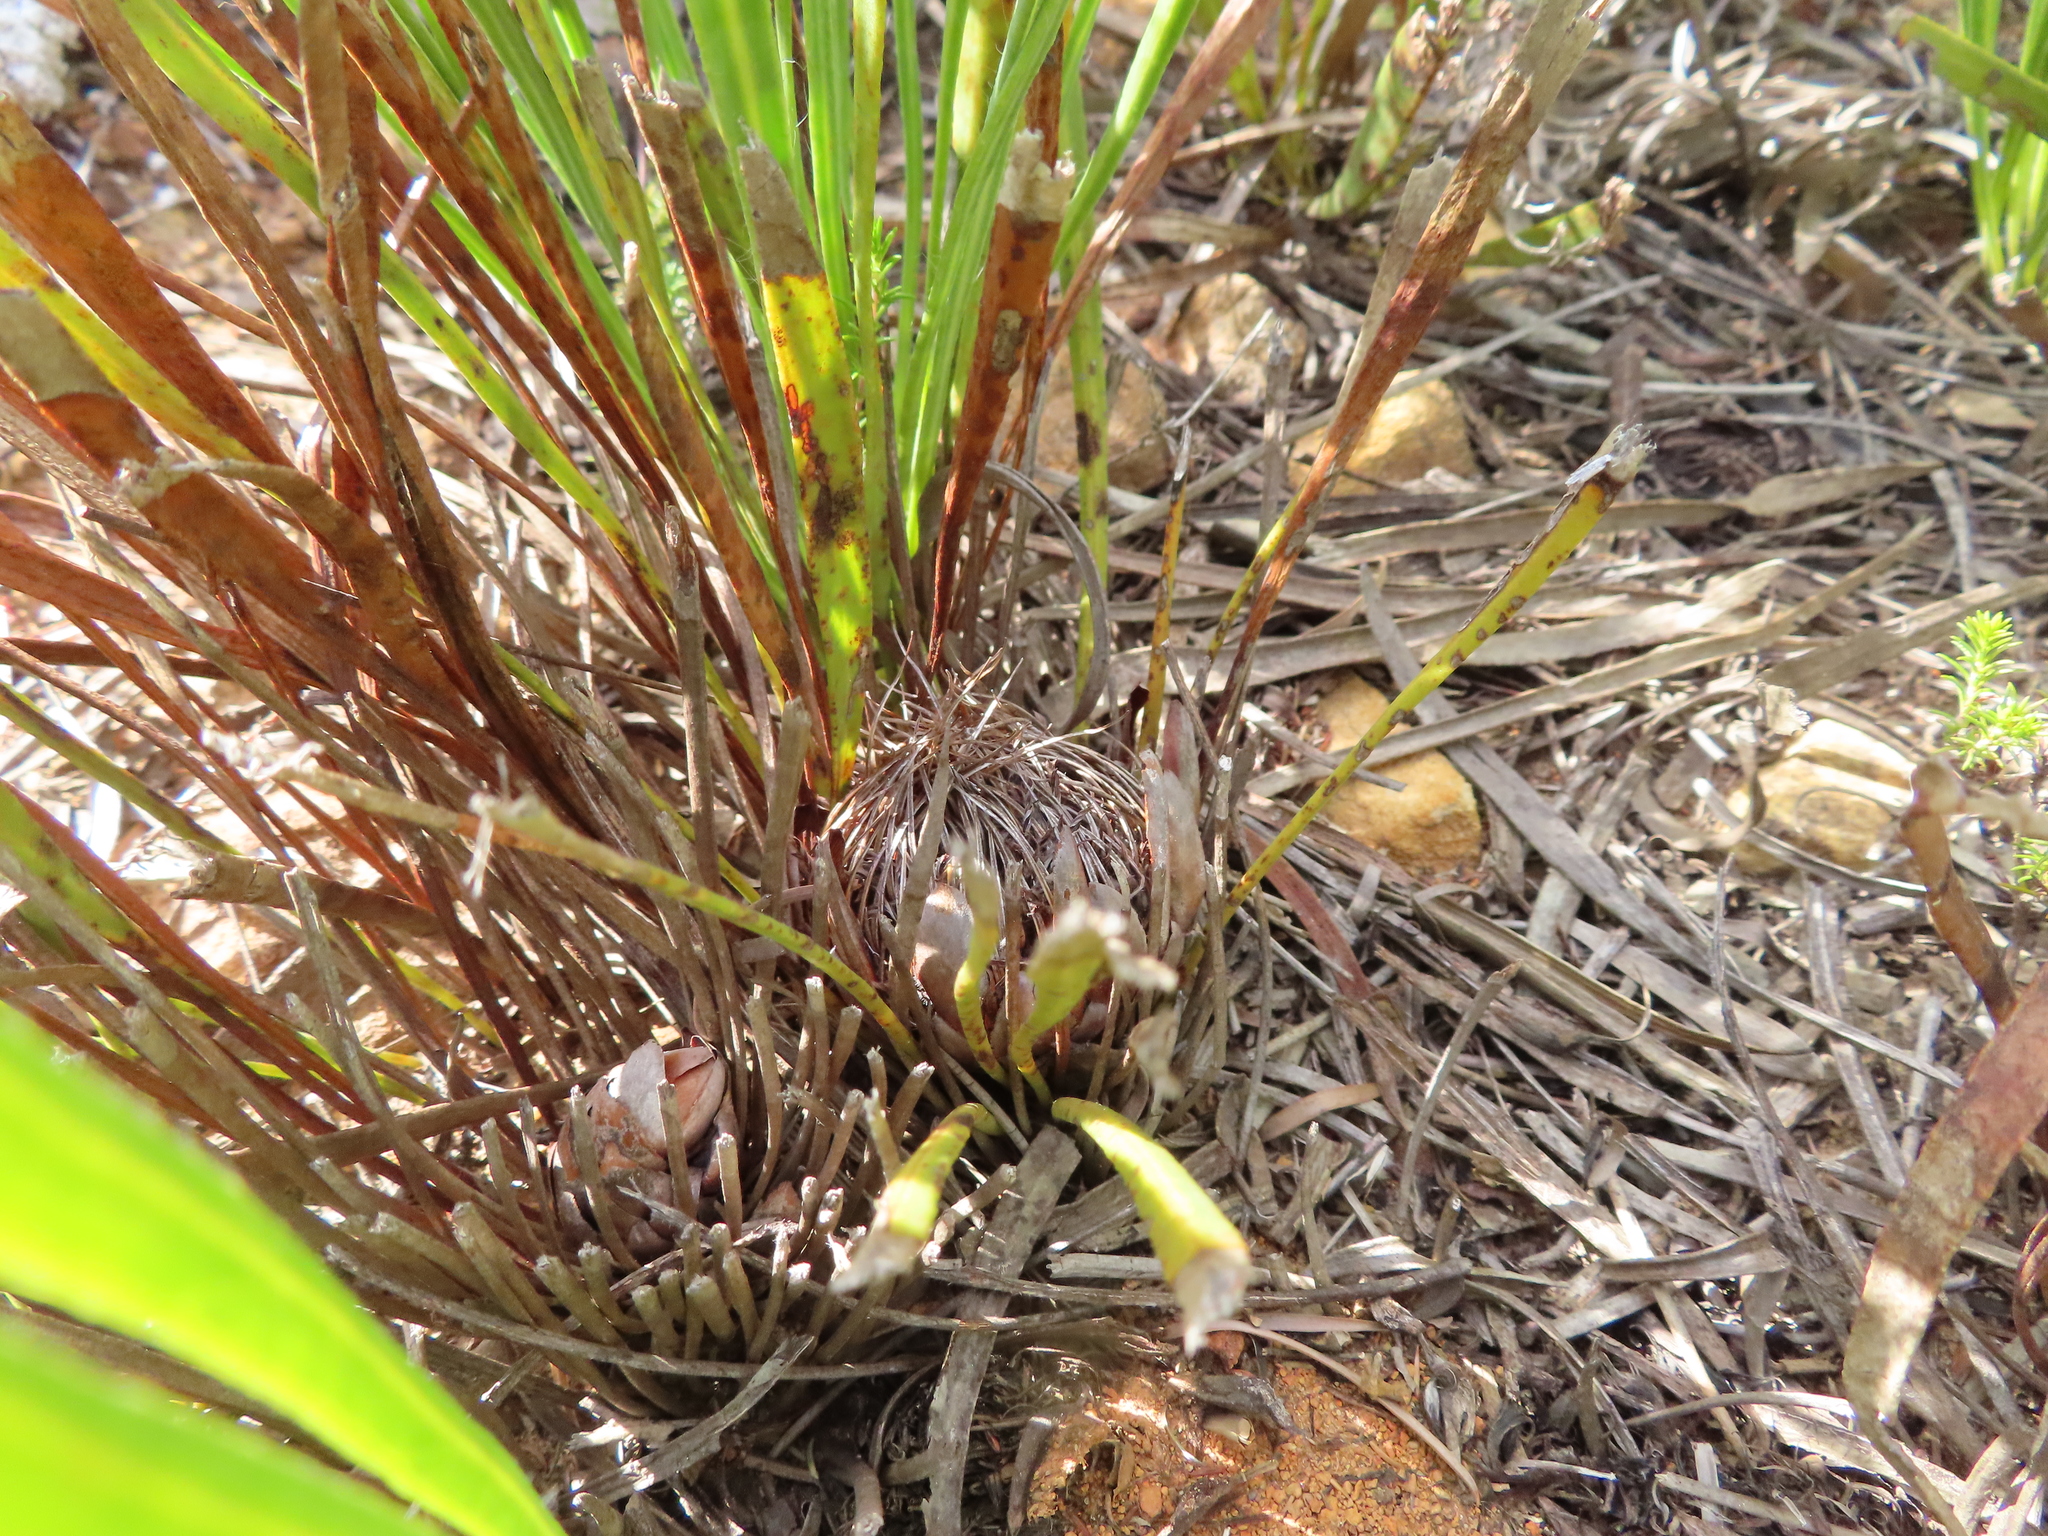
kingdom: Plantae
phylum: Tracheophyta
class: Magnoliopsida
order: Proteales
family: Proteaceae
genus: Protea
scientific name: Protea scabra
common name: Sandpaper-leaf sugarbush
